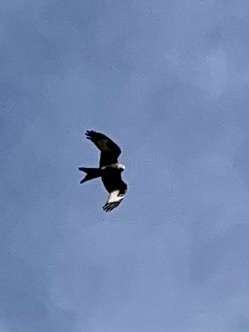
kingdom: Animalia
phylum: Chordata
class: Aves
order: Accipitriformes
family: Accipitridae
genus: Milvus
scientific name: Milvus milvus
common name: Red kite
